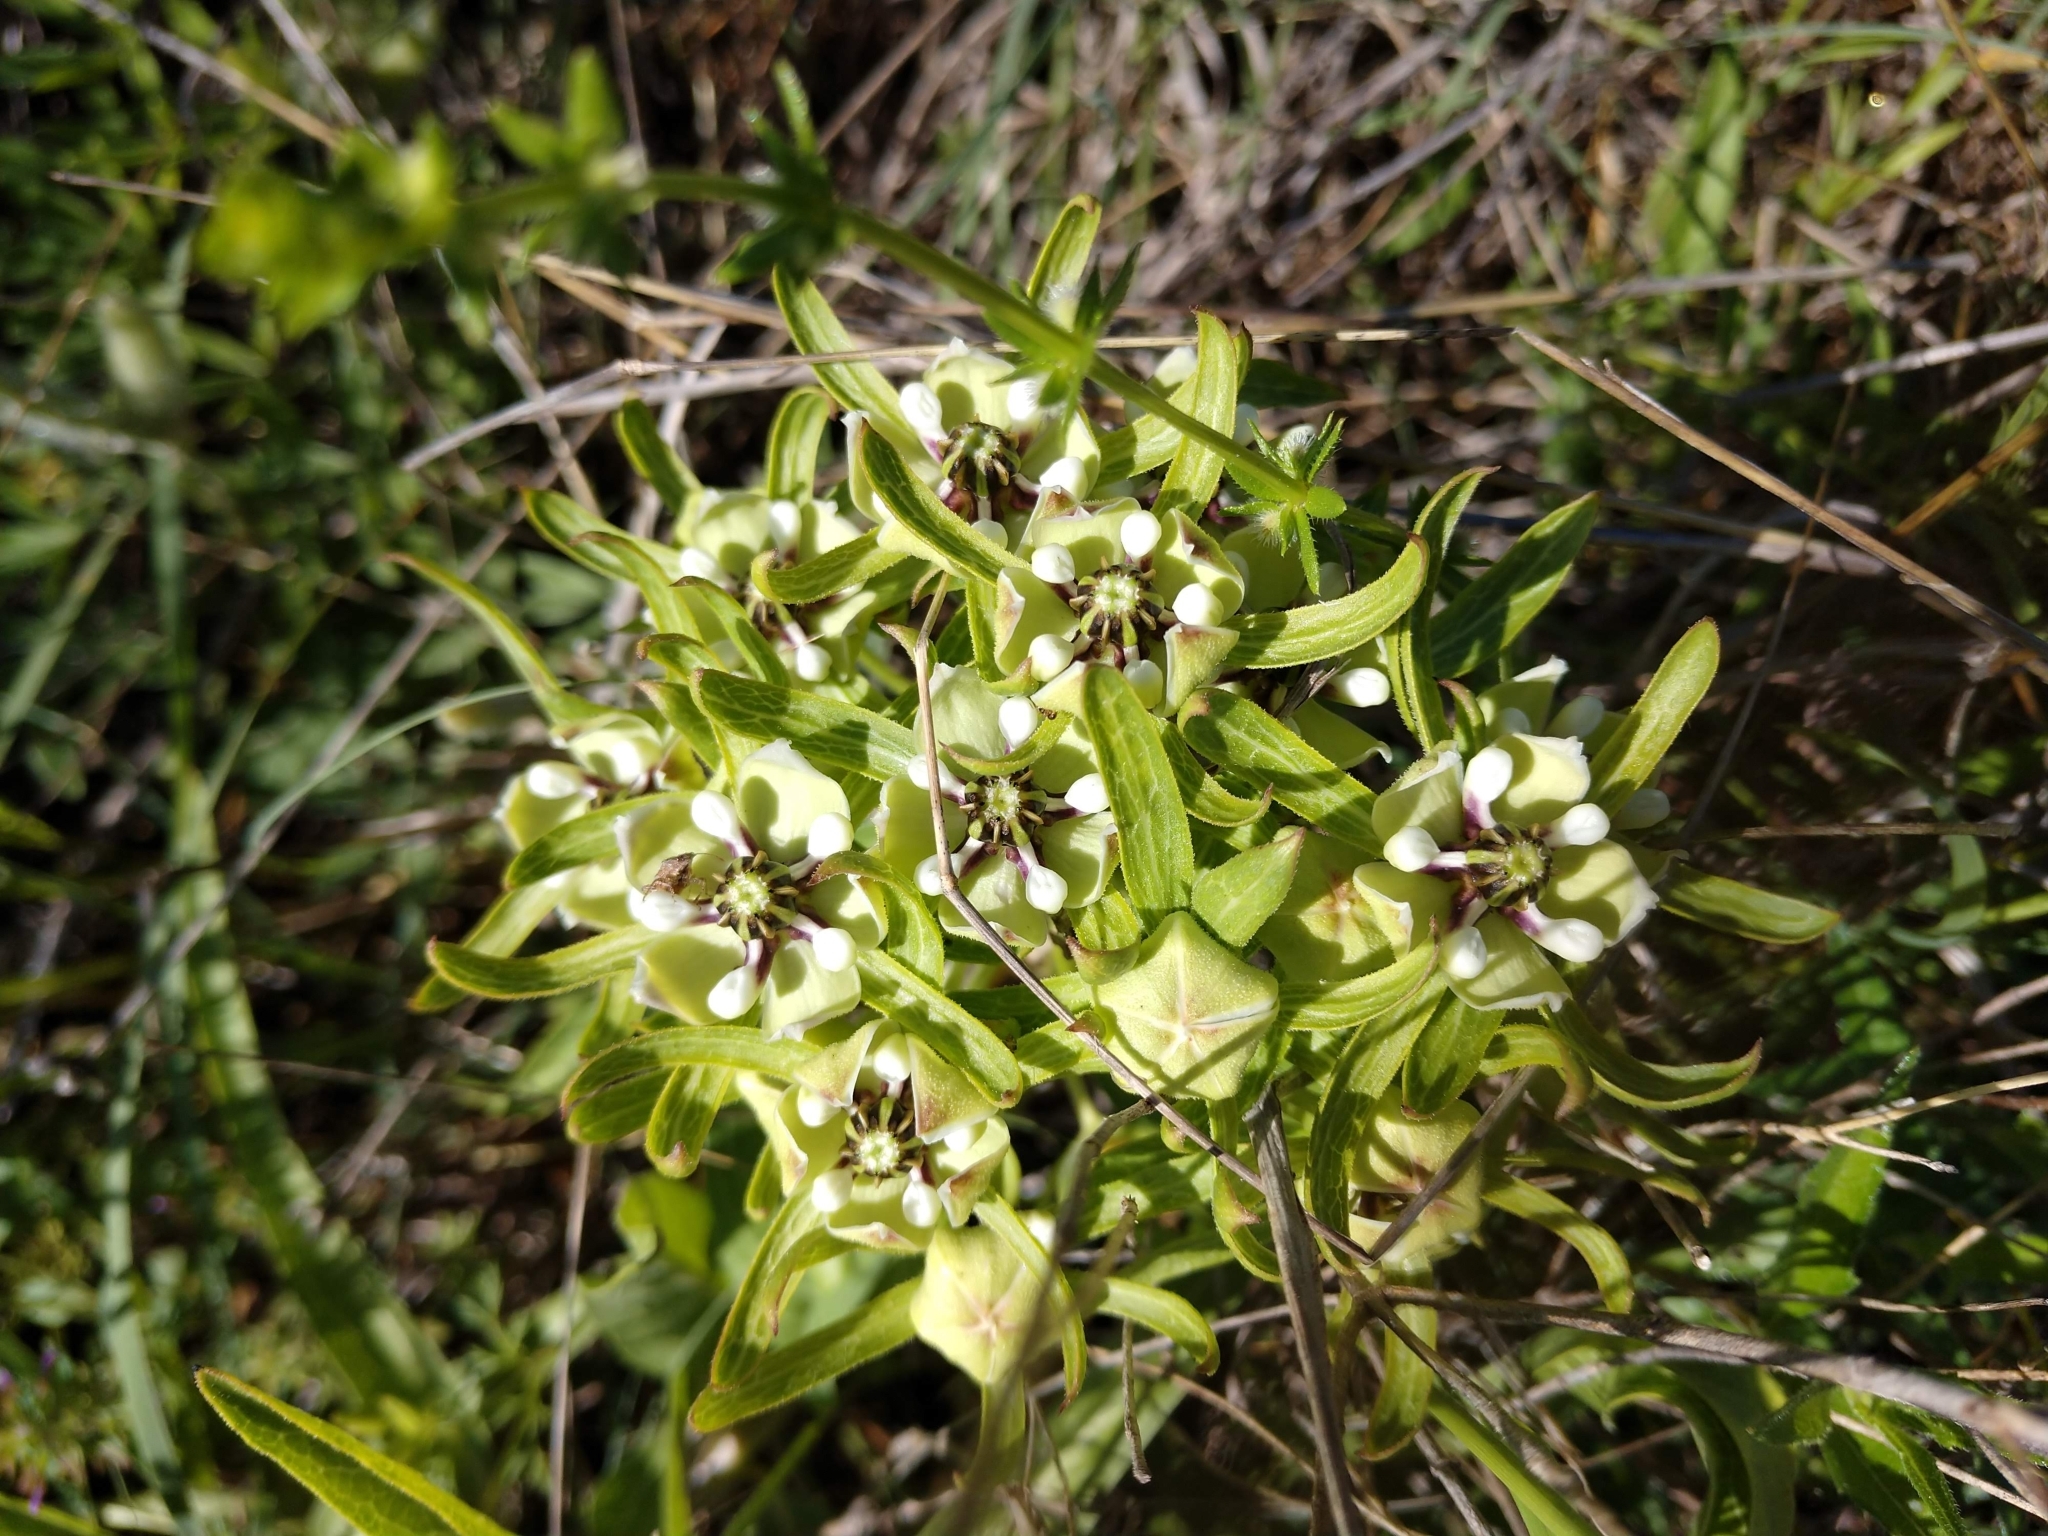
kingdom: Plantae
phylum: Tracheophyta
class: Magnoliopsida
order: Gentianales
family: Apocynaceae
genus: Asclepias
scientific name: Asclepias asperula
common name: Antelope horns
